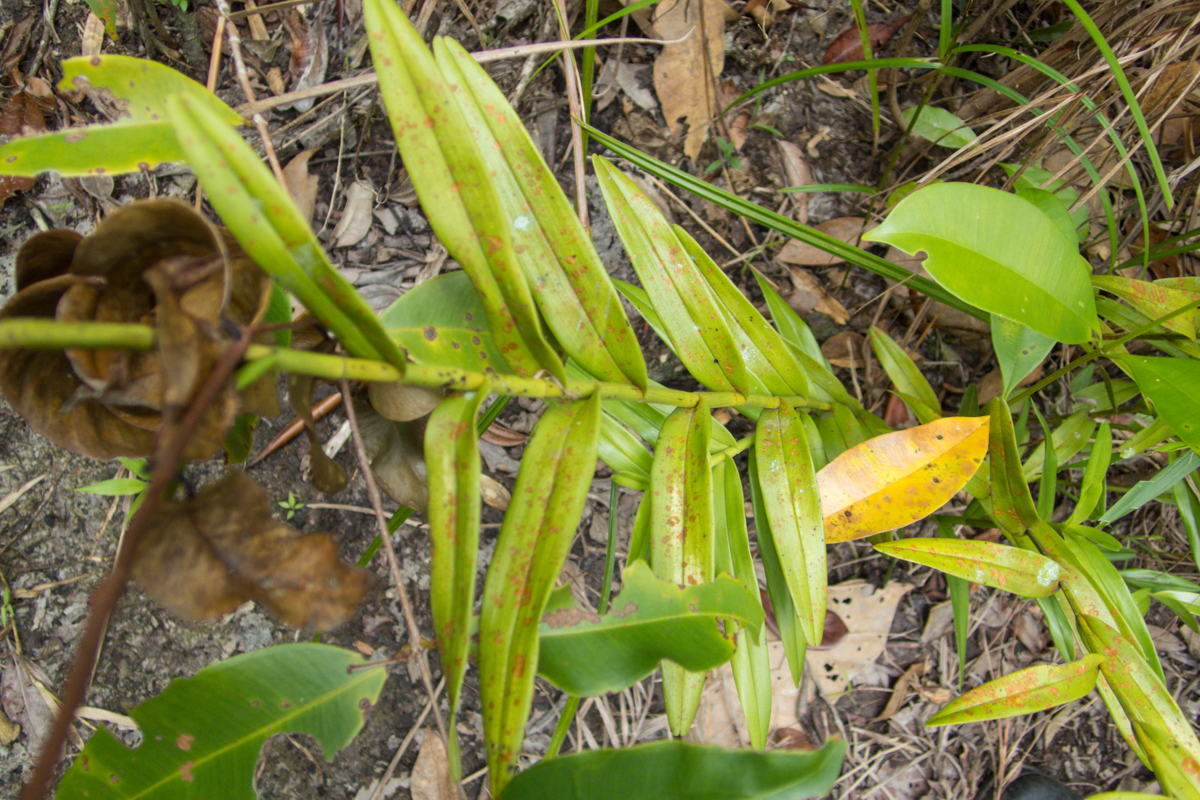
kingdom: Plantae
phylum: Tracheophyta
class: Liliopsida
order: Asparagales
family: Orchidaceae
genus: Bromheadia
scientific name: Bromheadia finlaysoniana
